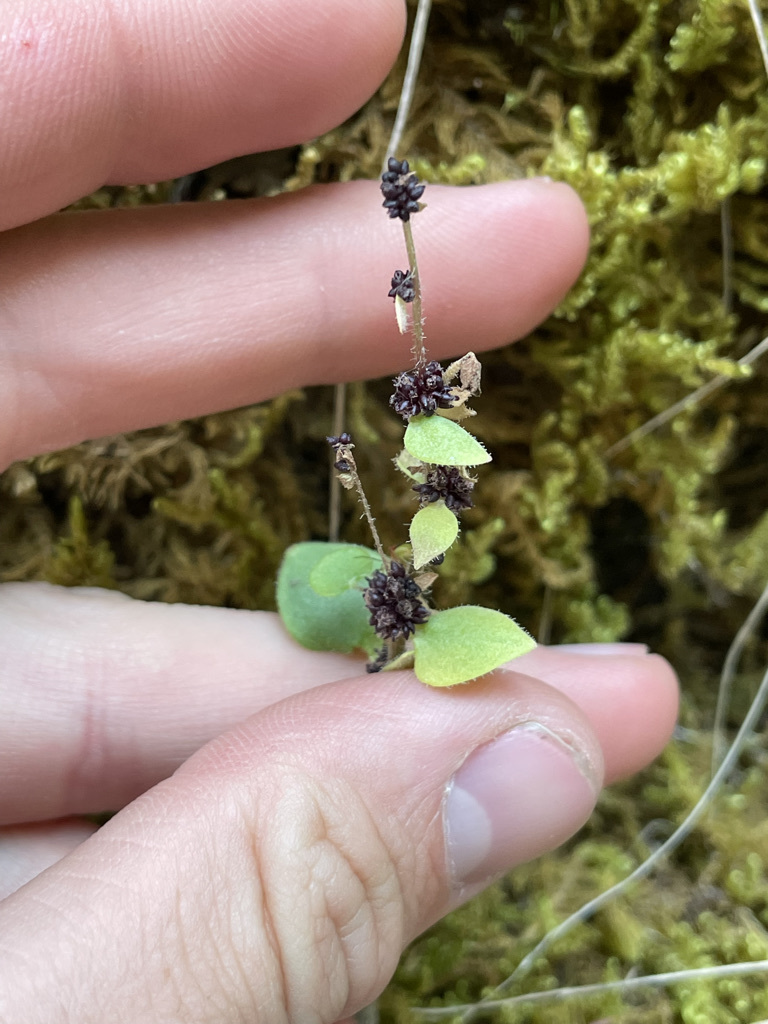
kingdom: Plantae
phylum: Tracheophyta
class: Magnoliopsida
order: Saxifragales
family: Saxifragaceae
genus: Saxifraga
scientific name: Saxifraga cernua
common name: Drooping saxifrage
